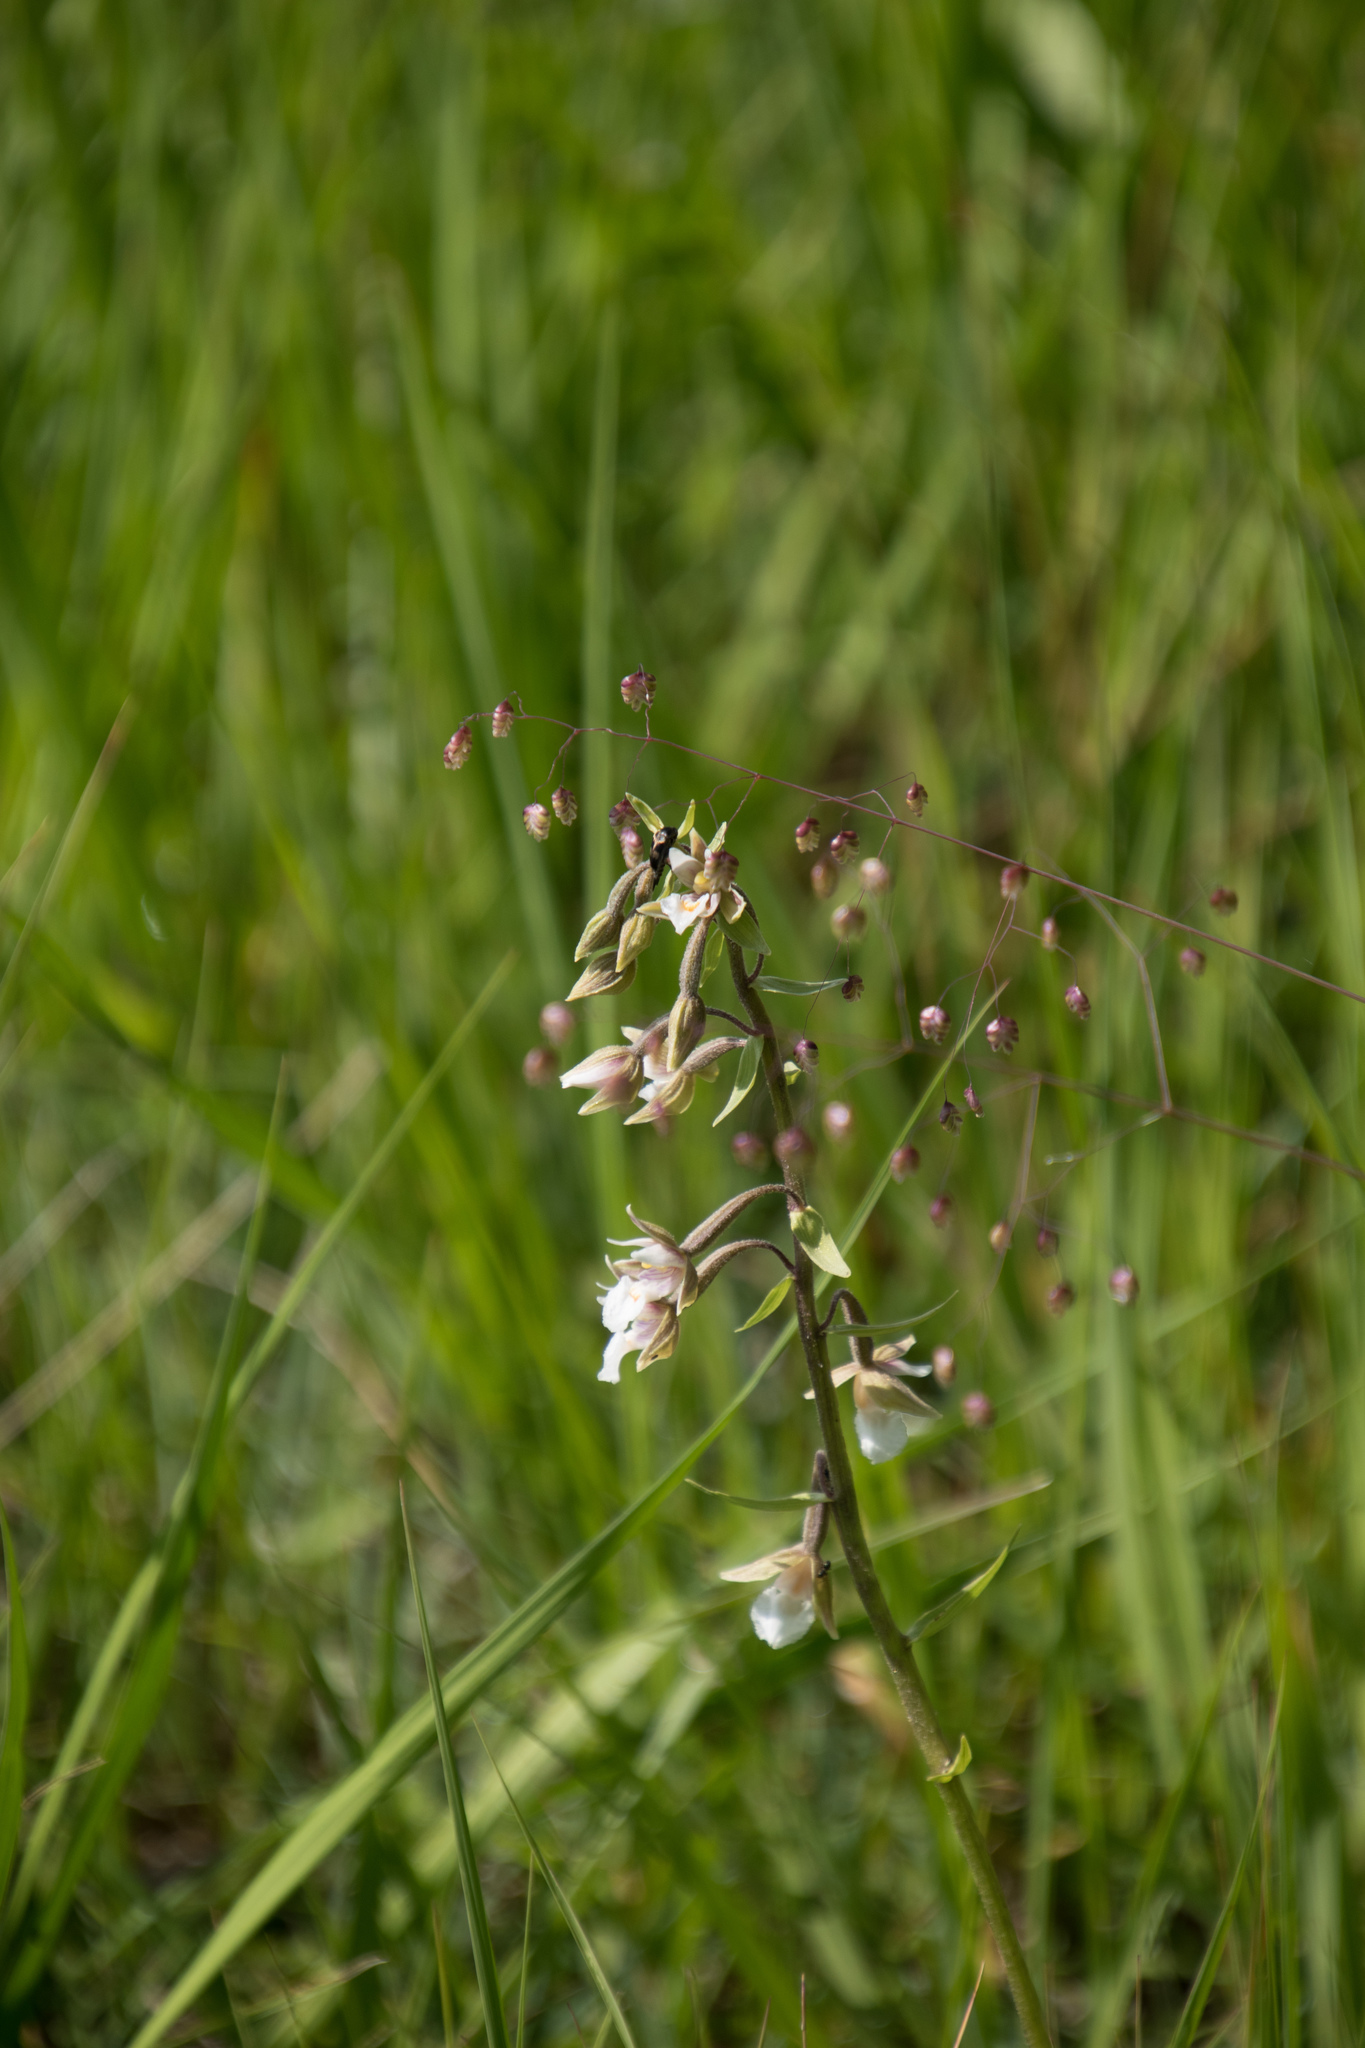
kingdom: Plantae
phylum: Tracheophyta
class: Liliopsida
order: Asparagales
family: Orchidaceae
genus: Epipactis
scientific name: Epipactis palustris
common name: Marsh helleborine
